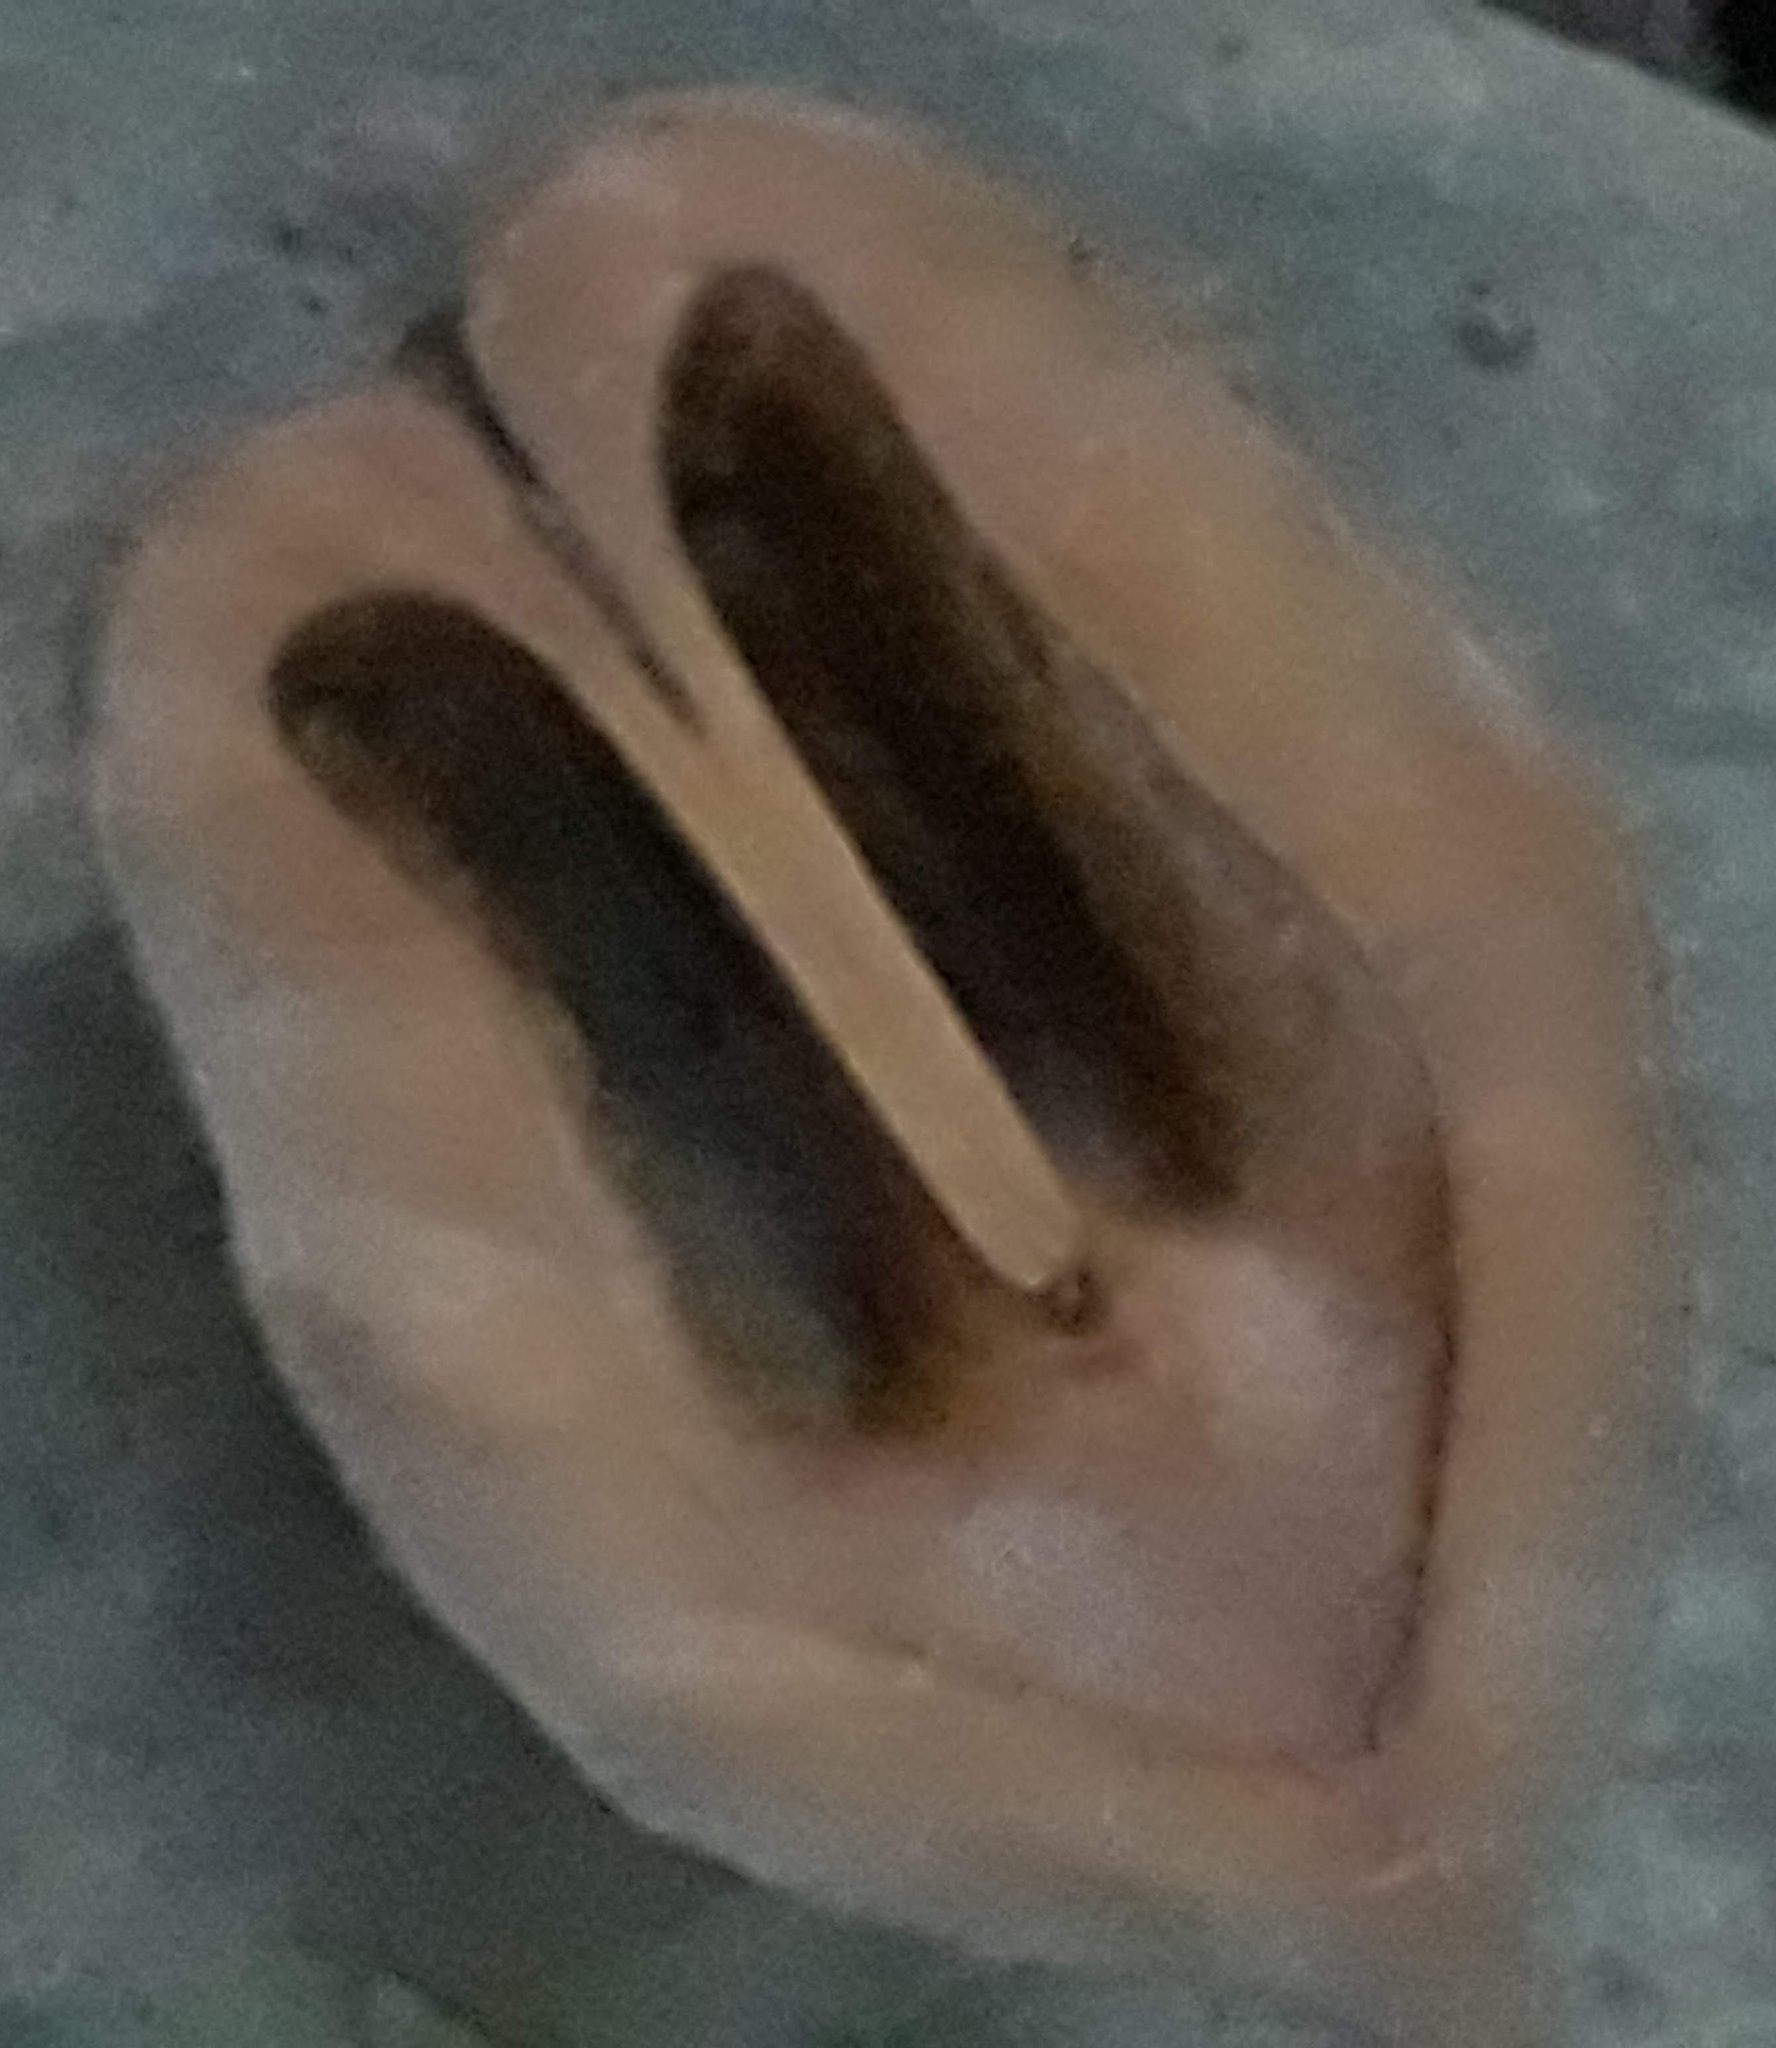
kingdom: Plantae
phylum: Tracheophyta
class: Magnoliopsida
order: Fagales
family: Juglandaceae
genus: Juglans
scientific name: Juglans cinerea
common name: Butternut
